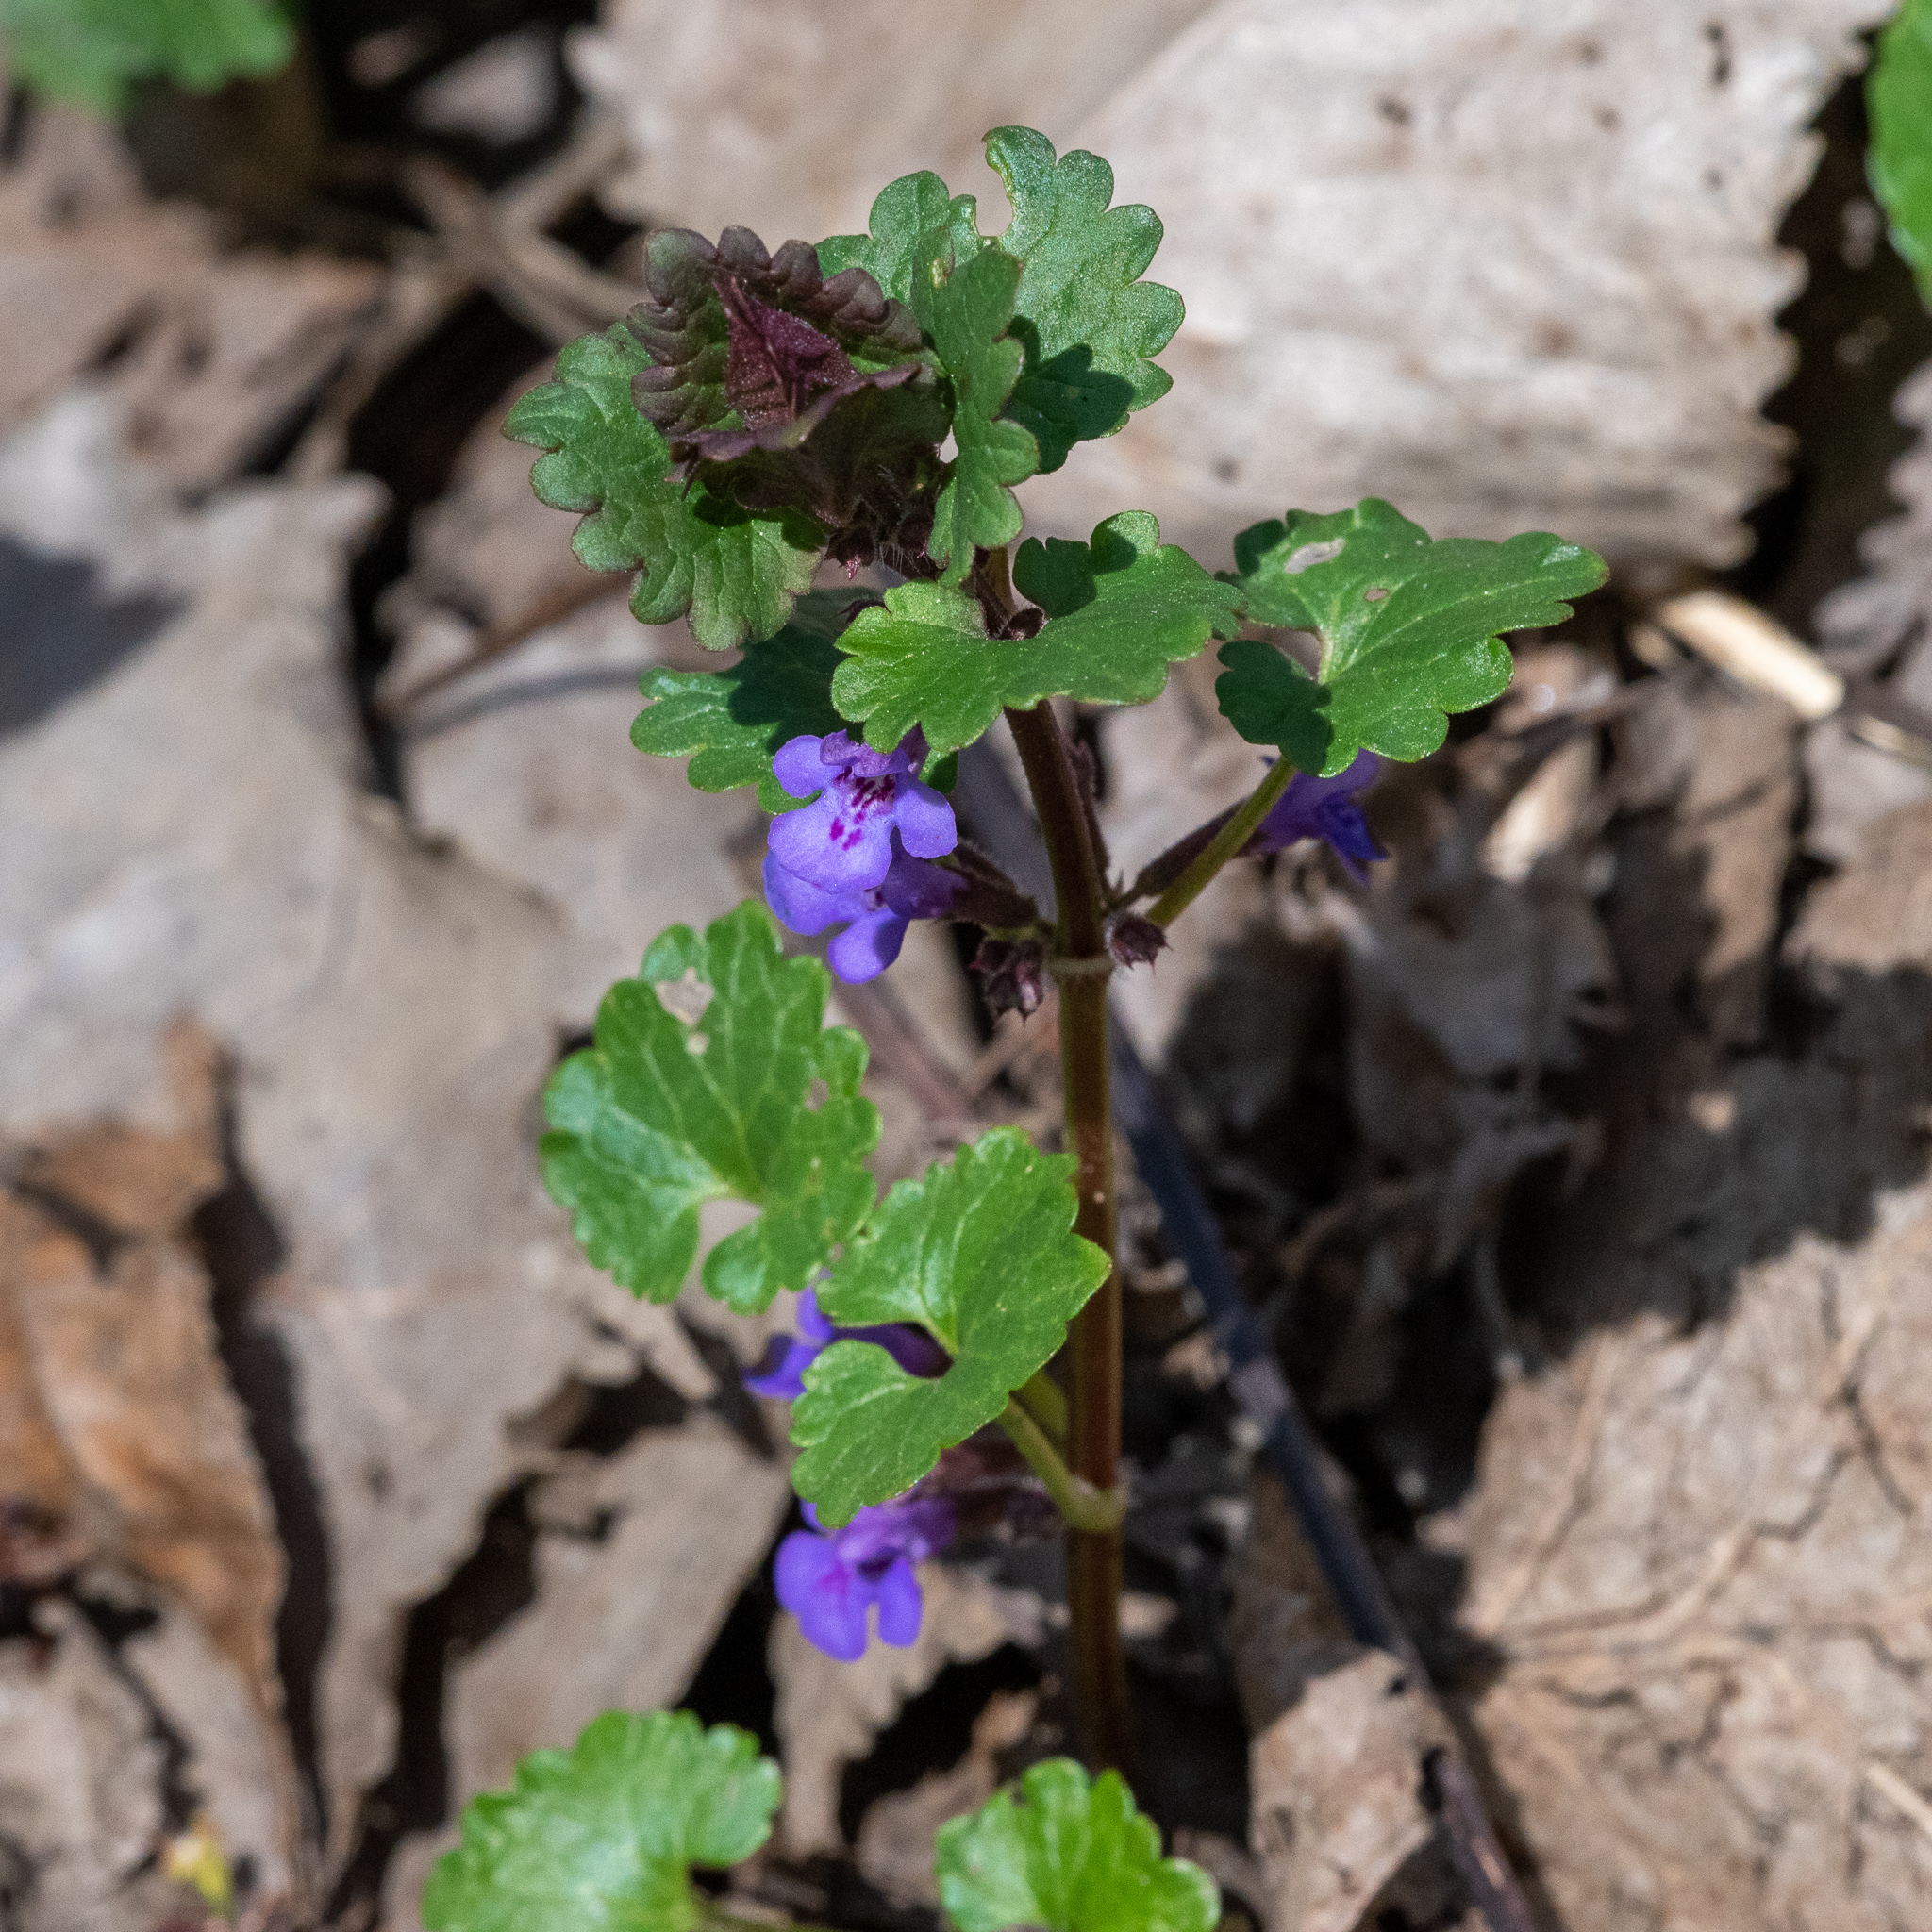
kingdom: Plantae
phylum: Tracheophyta
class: Magnoliopsida
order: Lamiales
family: Lamiaceae
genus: Glechoma
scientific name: Glechoma hederacea
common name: Ground ivy
